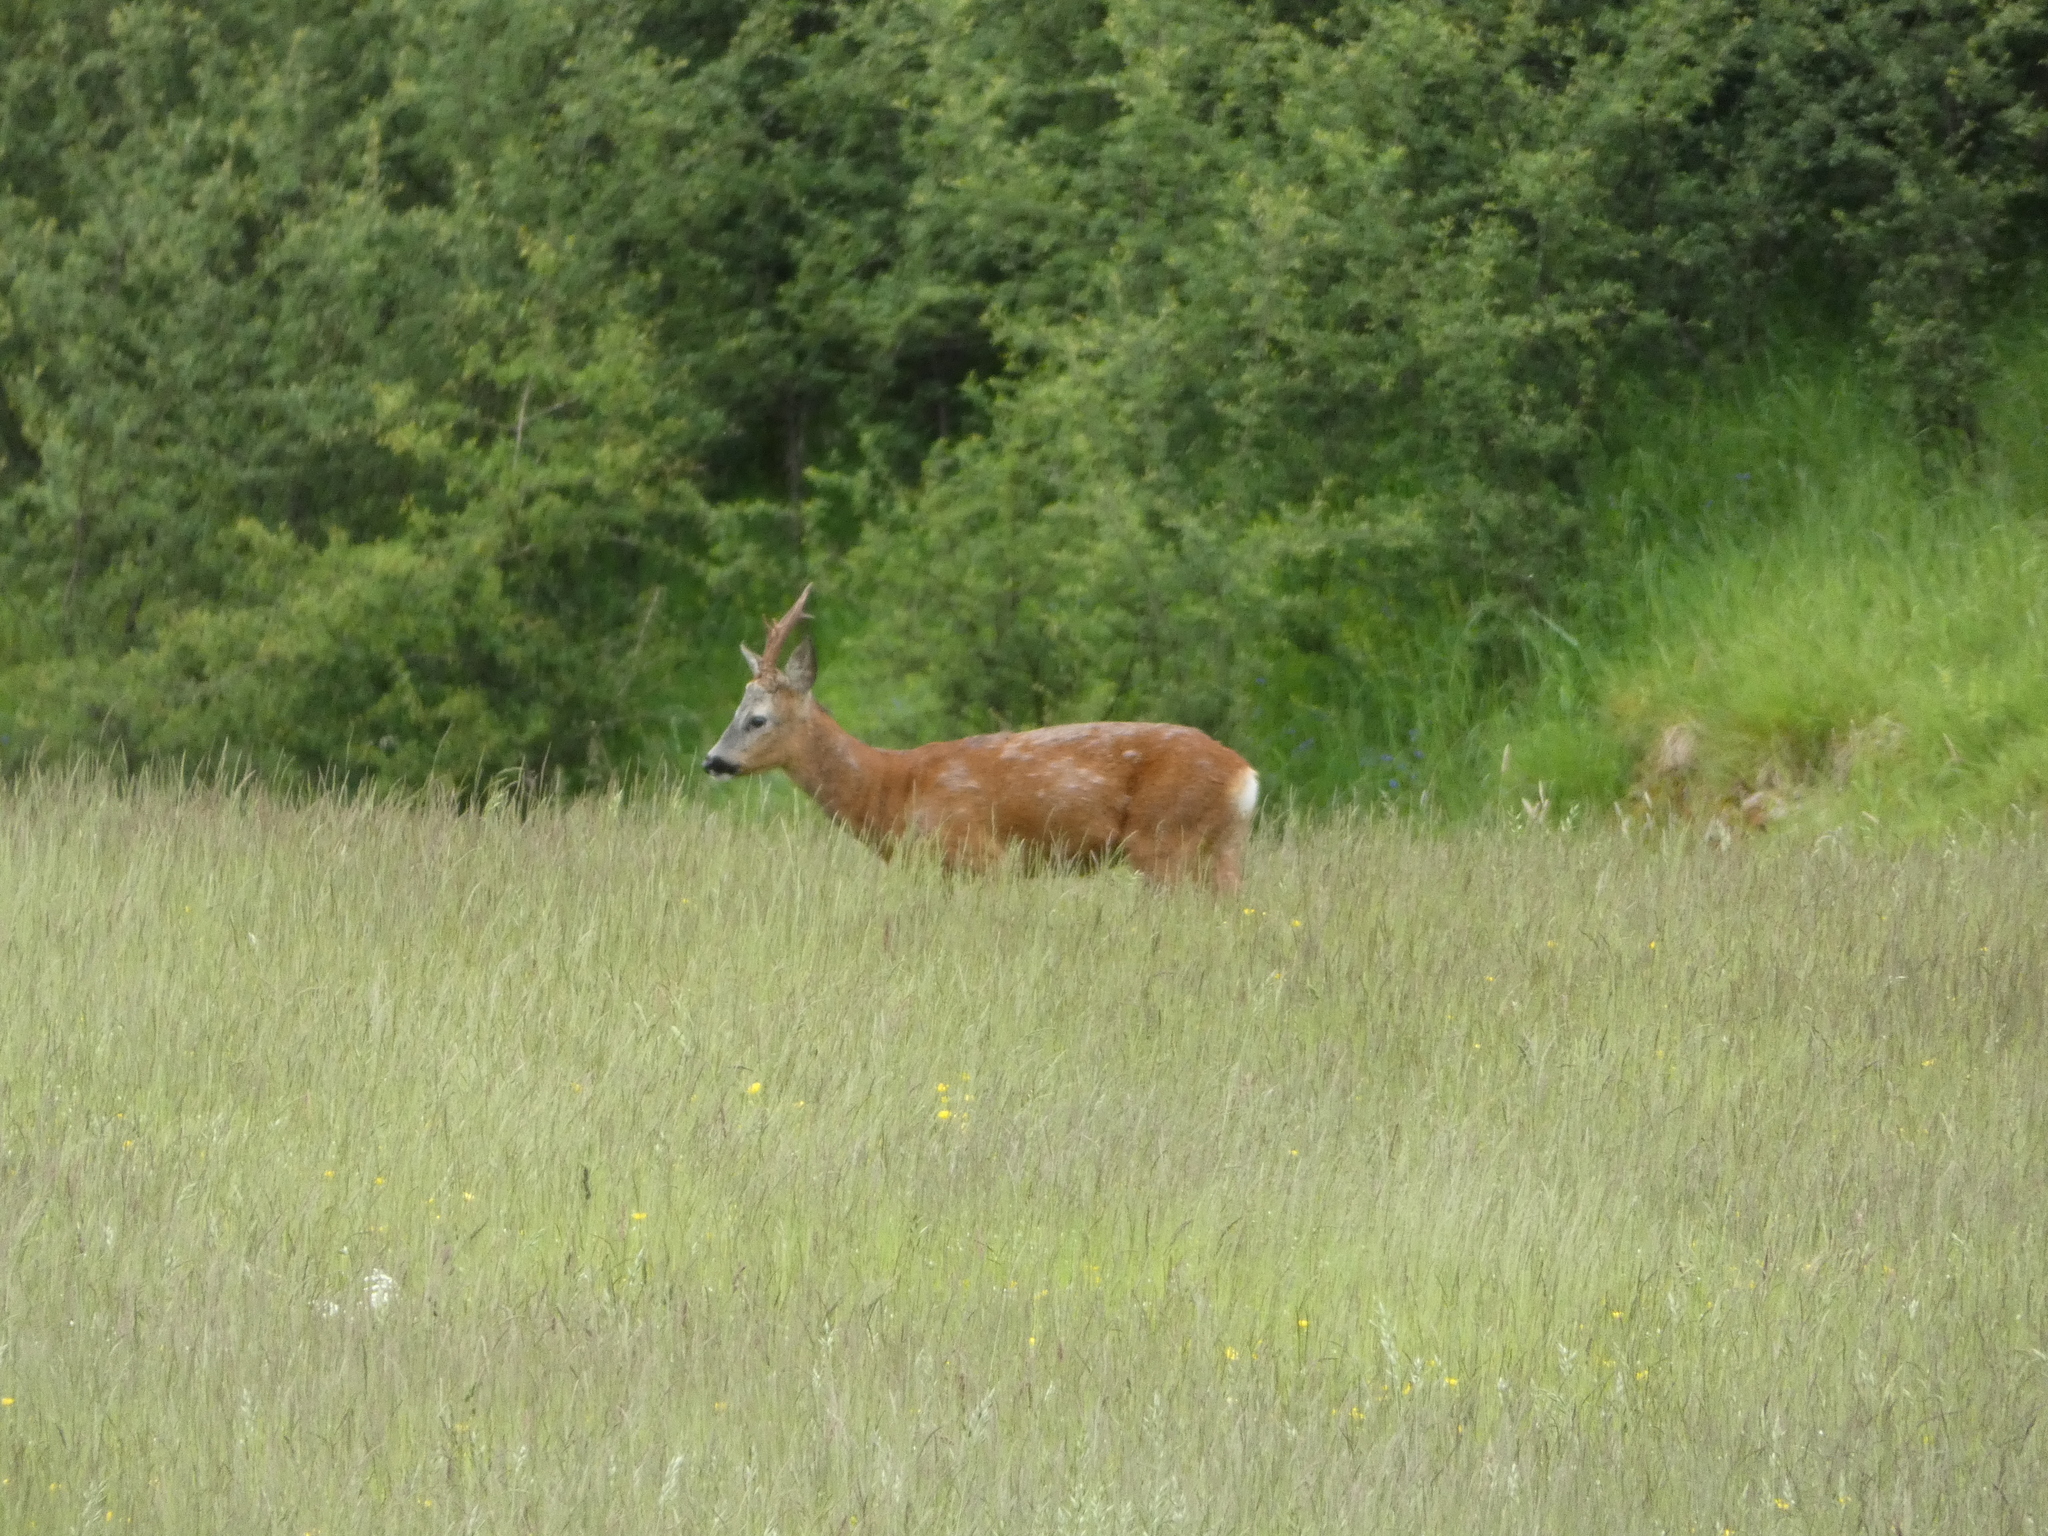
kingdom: Animalia
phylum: Chordata
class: Mammalia
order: Artiodactyla
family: Cervidae
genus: Capreolus
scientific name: Capreolus capreolus
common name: Western roe deer
